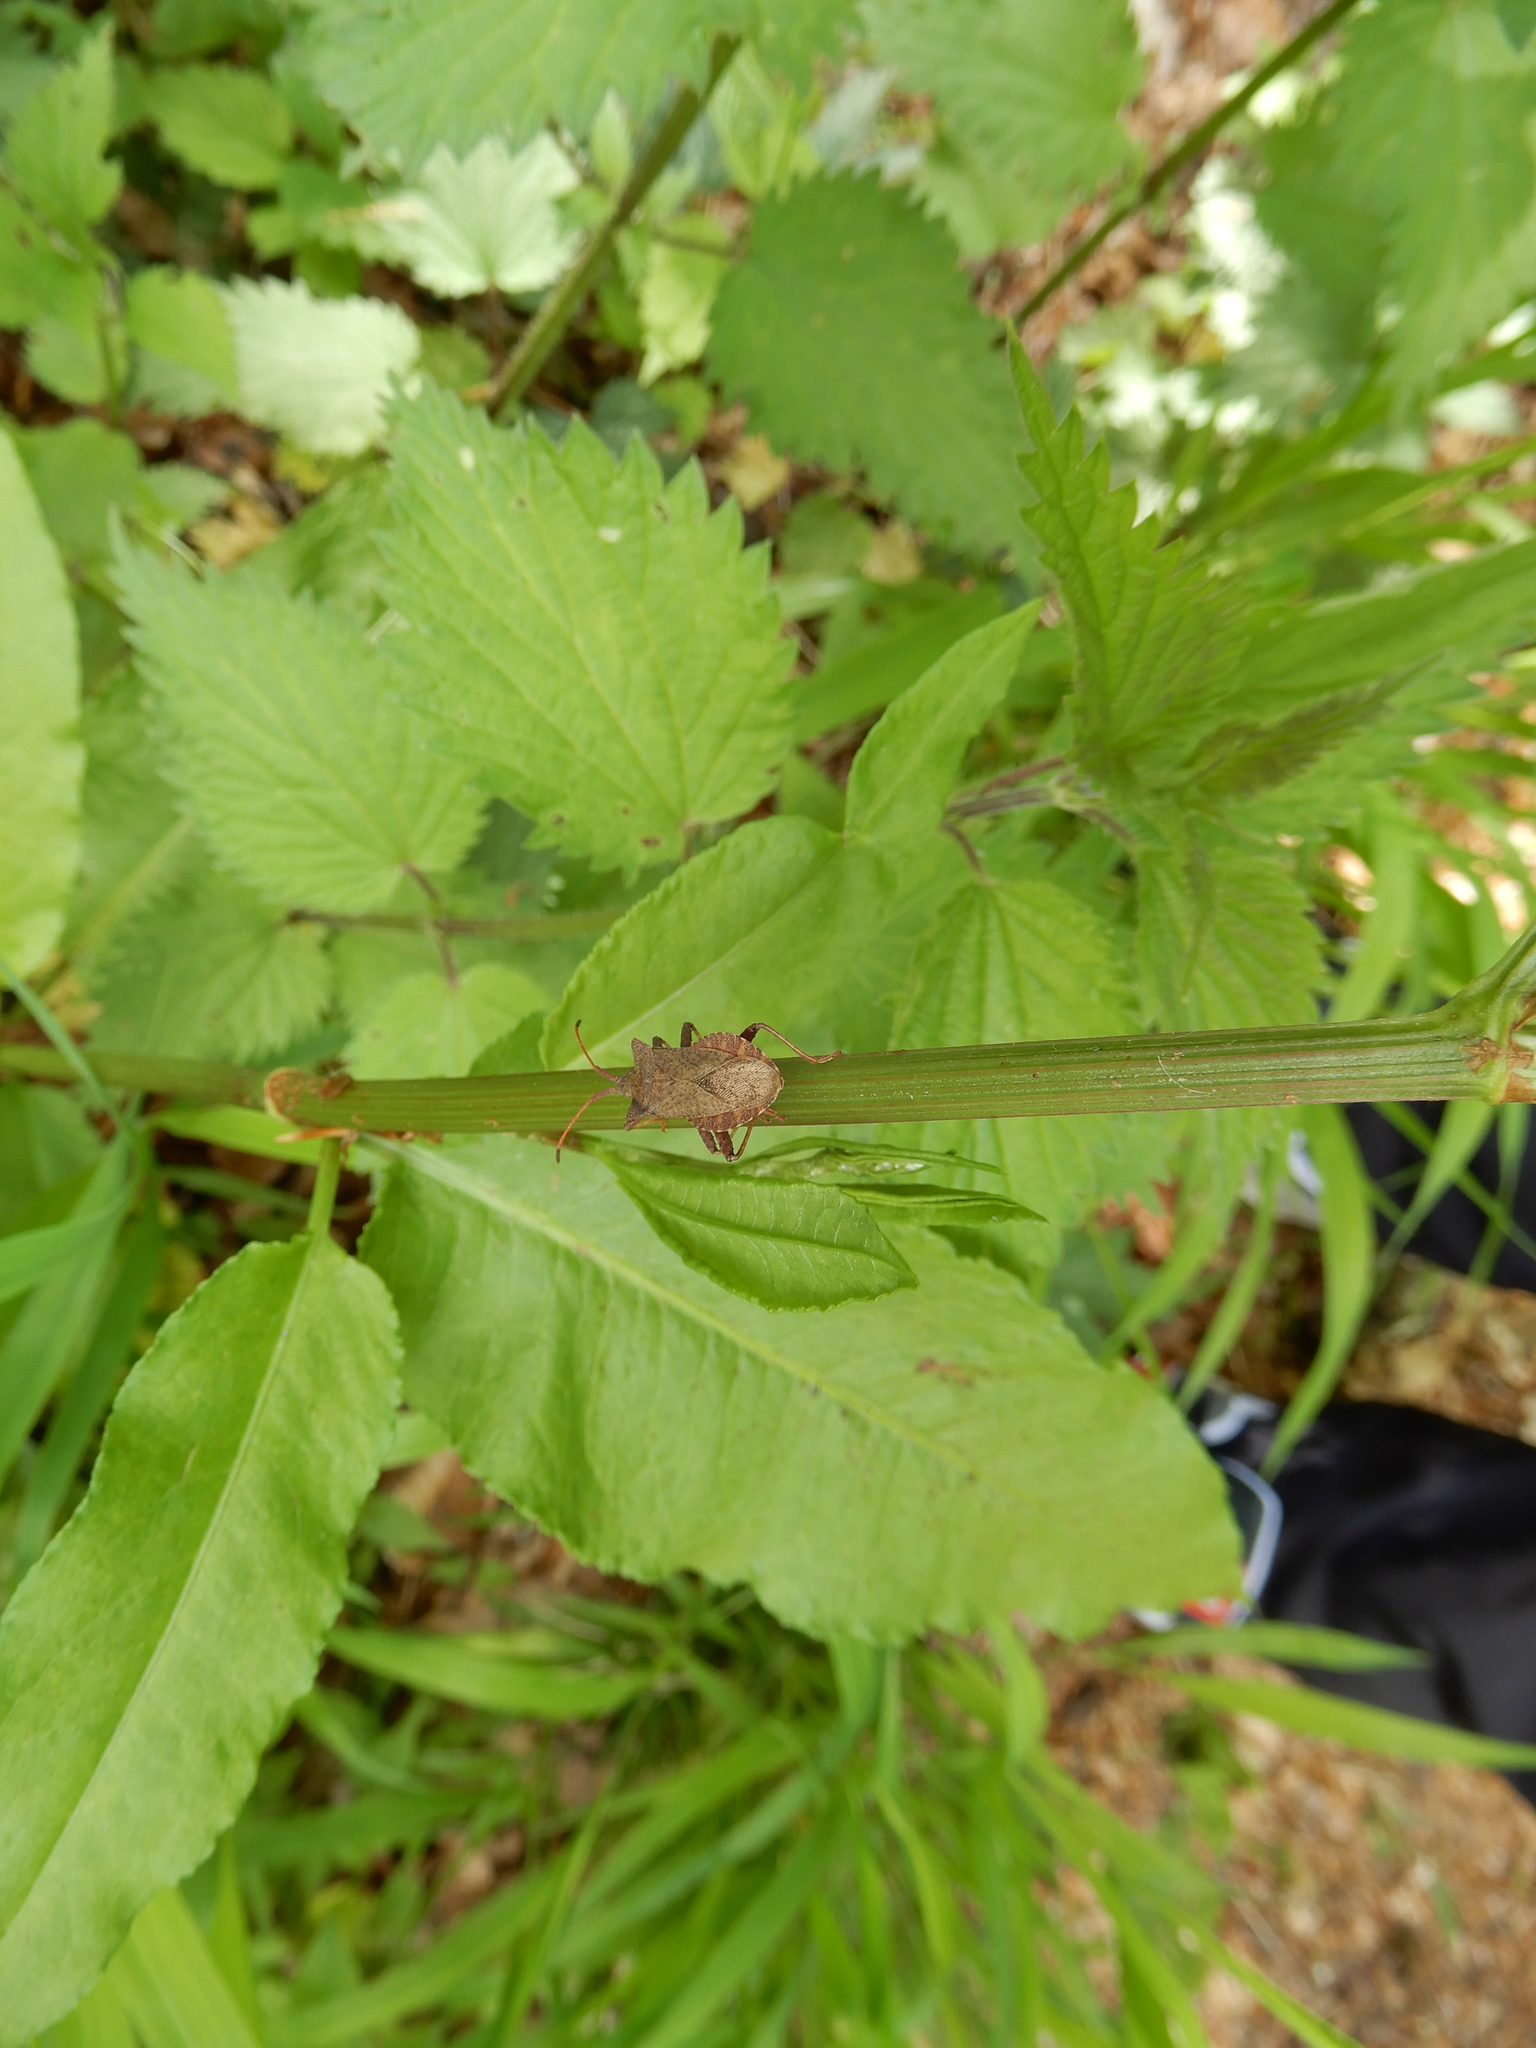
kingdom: Animalia
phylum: Arthropoda
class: Insecta
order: Hemiptera
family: Coreidae
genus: Coreus
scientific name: Coreus marginatus
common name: Dock bug
